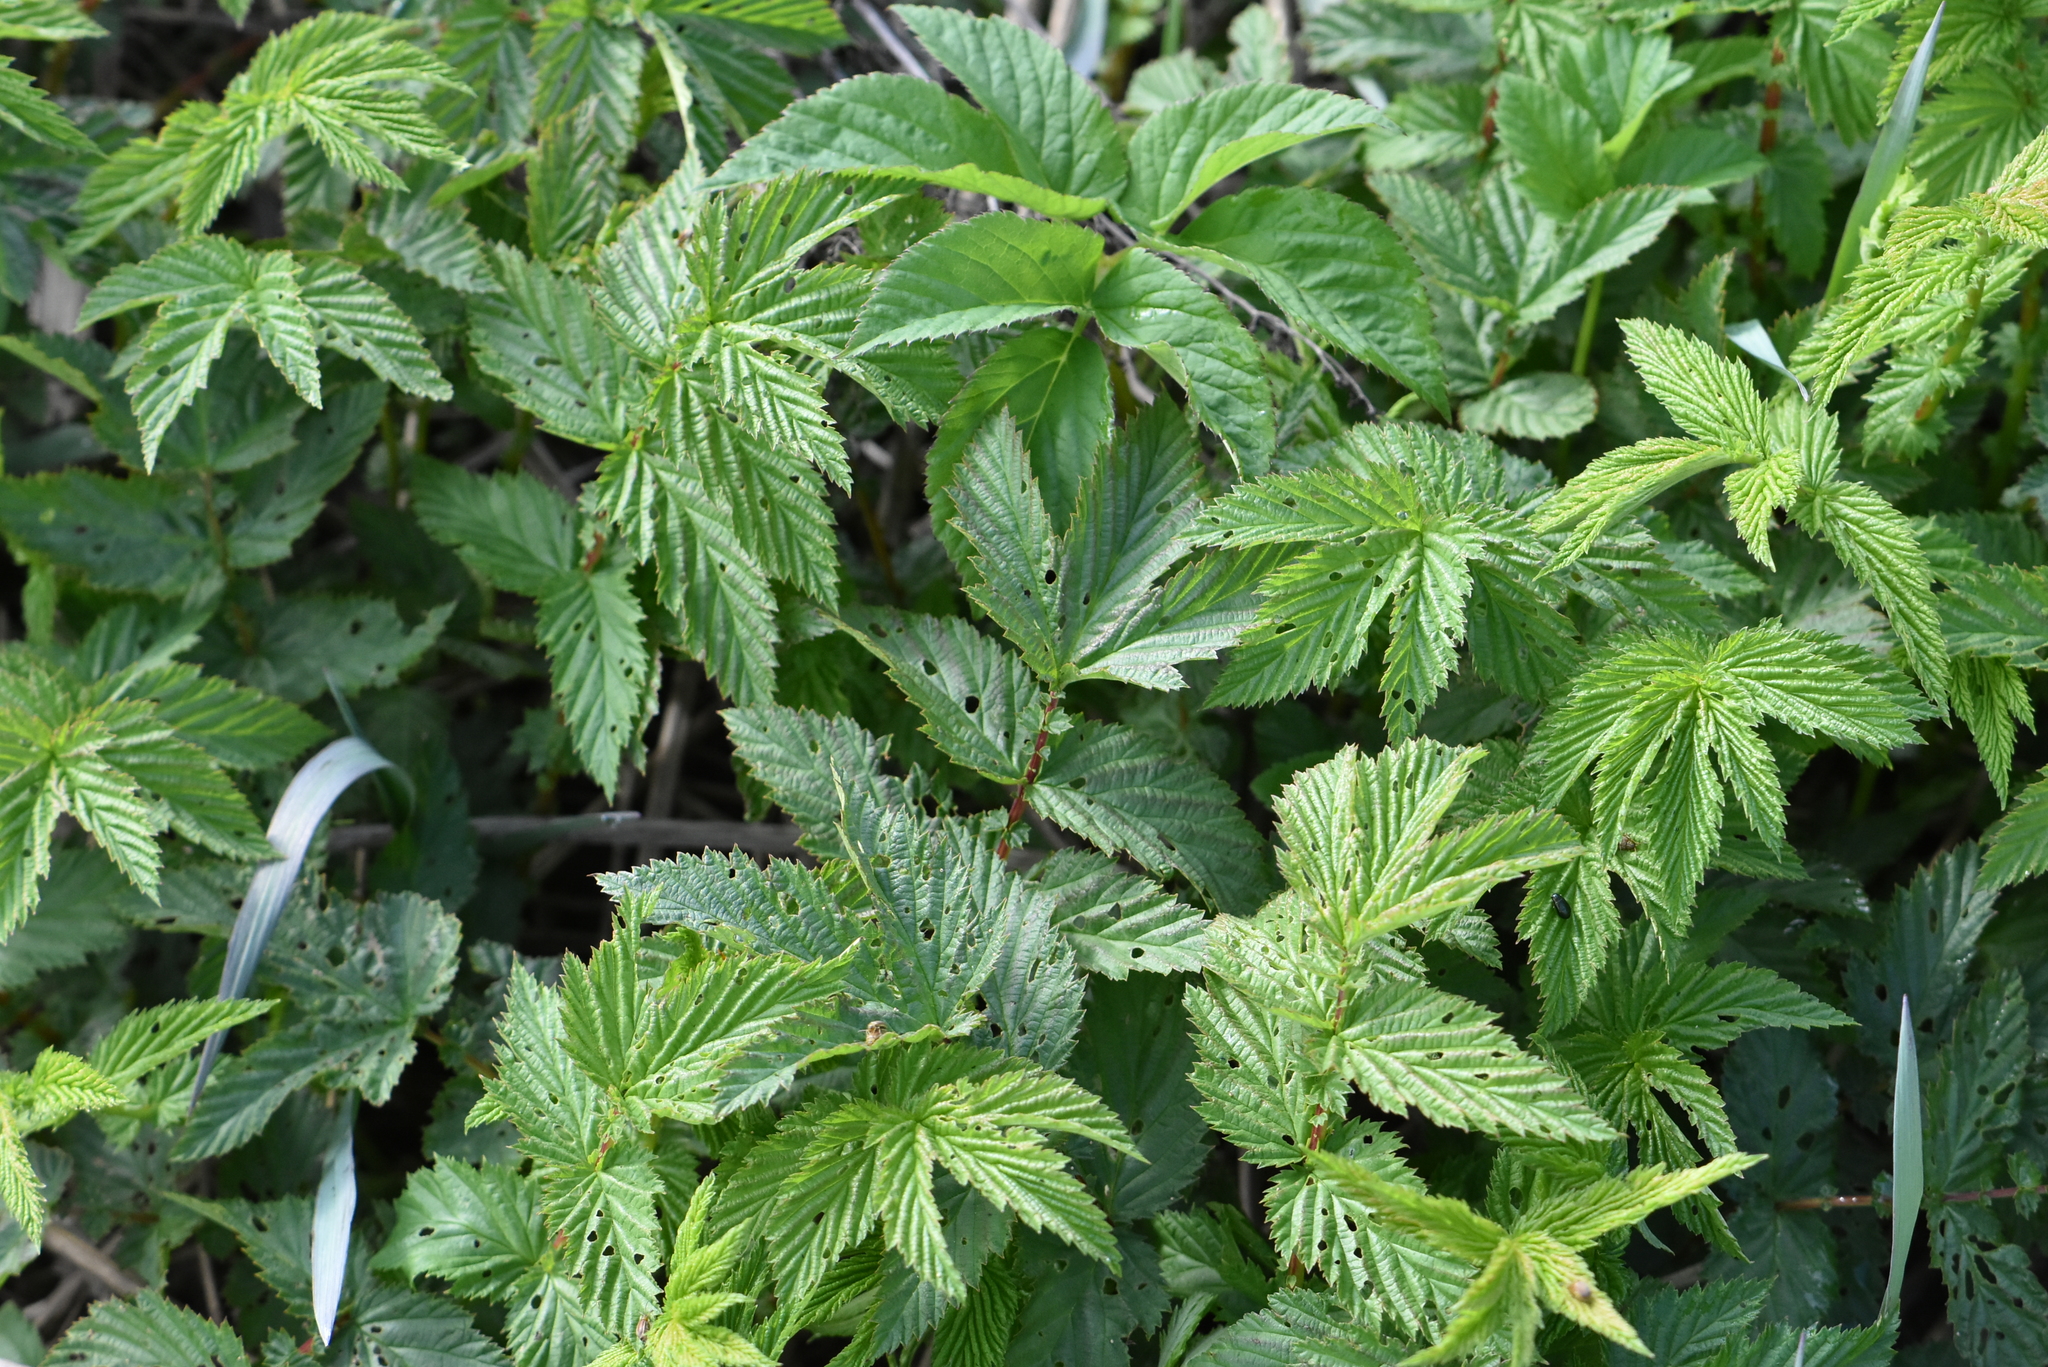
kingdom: Plantae
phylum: Tracheophyta
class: Magnoliopsida
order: Rosales
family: Rosaceae
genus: Filipendula
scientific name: Filipendula ulmaria
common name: Meadowsweet
